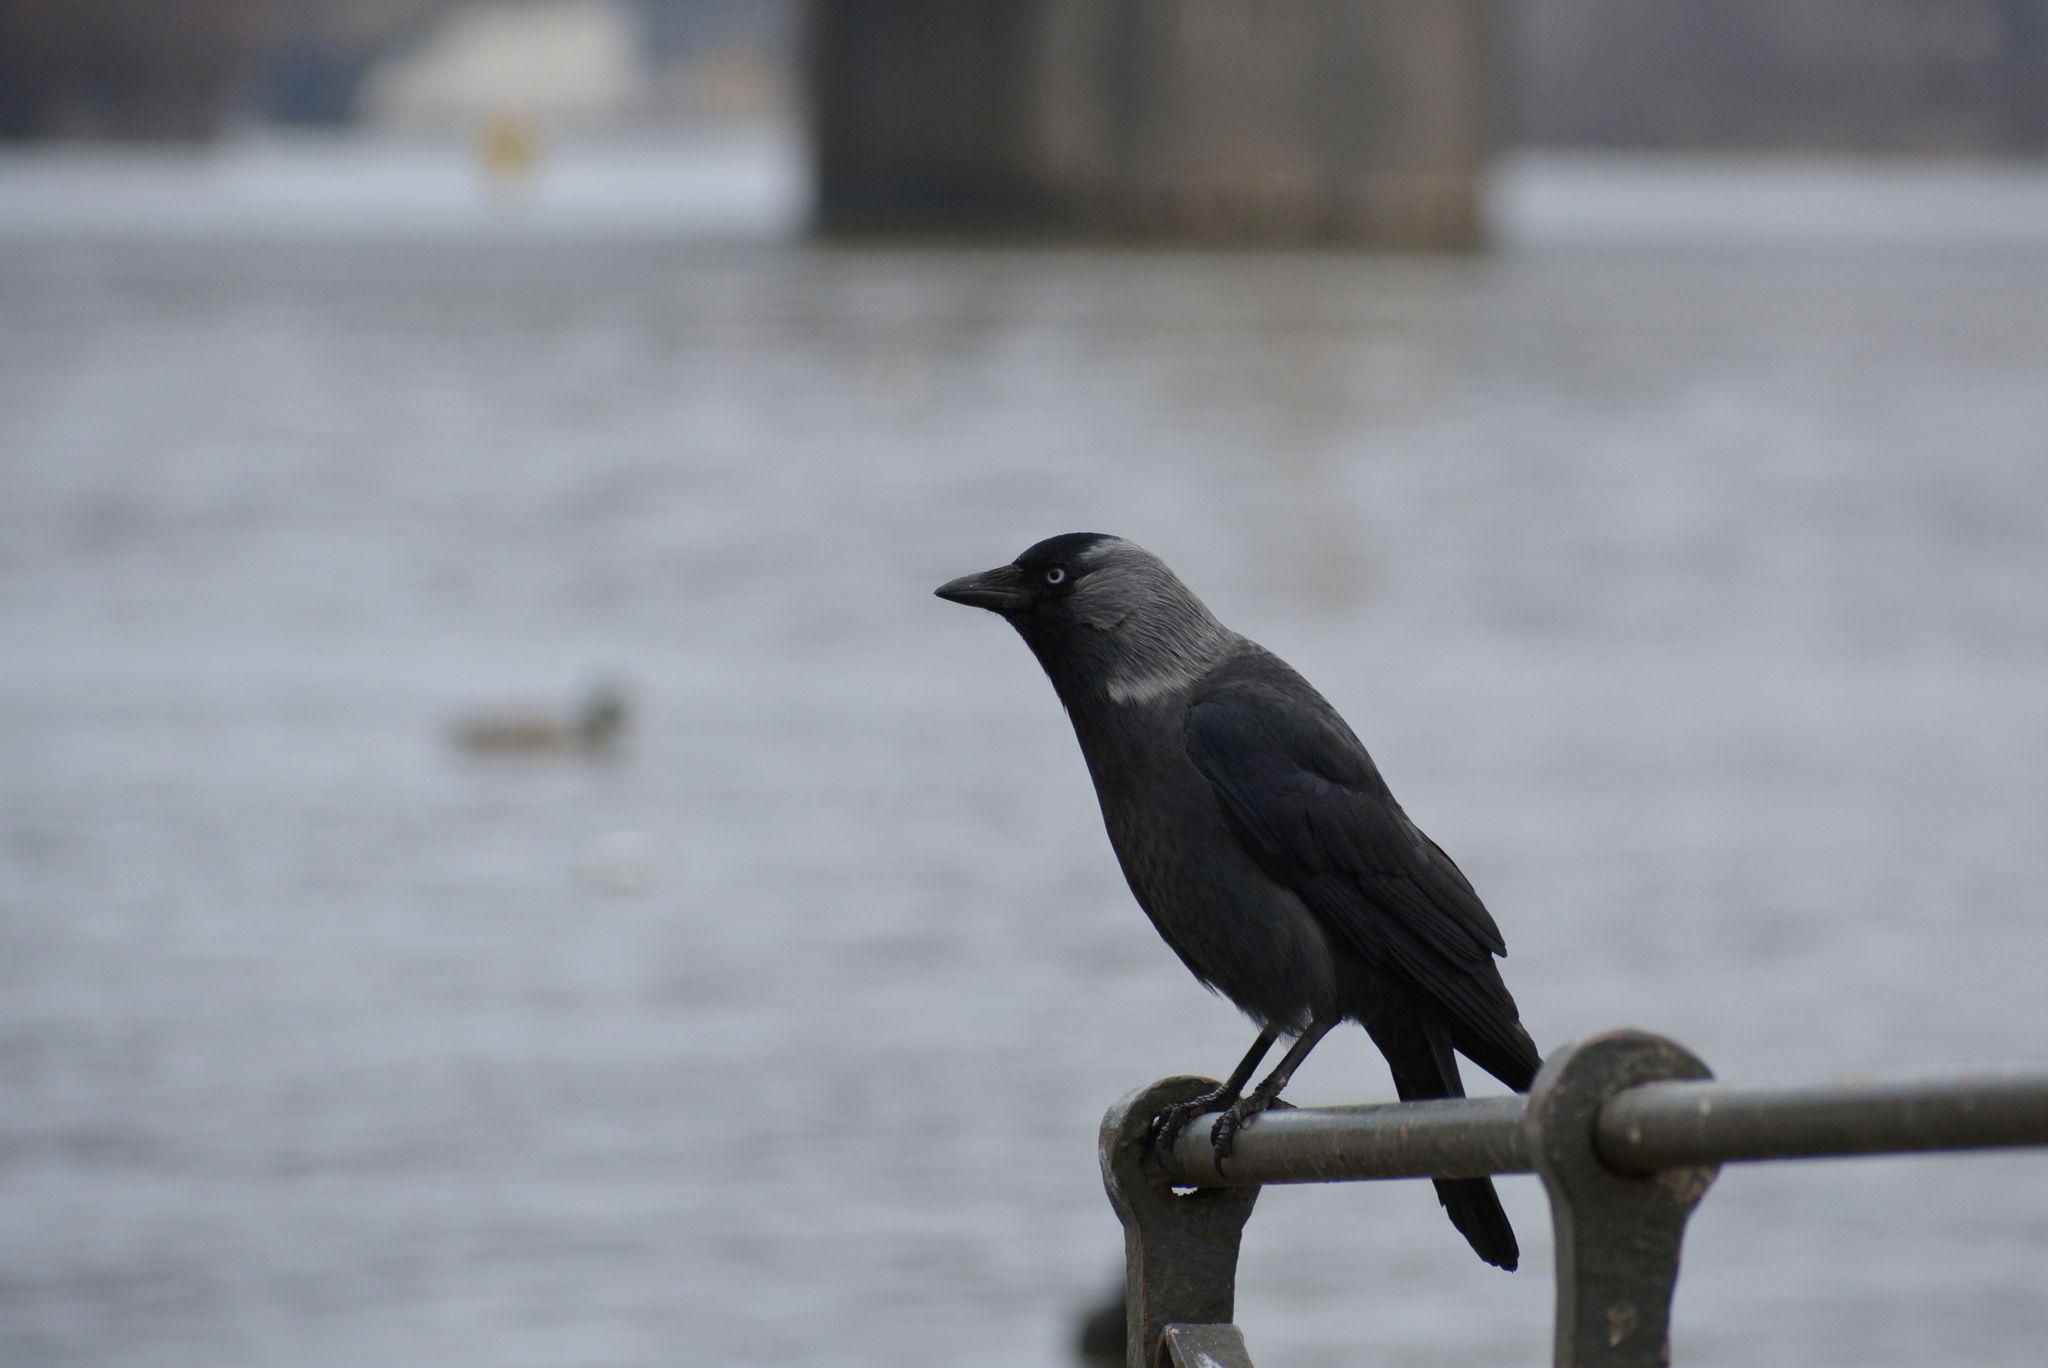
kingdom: Animalia
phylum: Chordata
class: Aves
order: Passeriformes
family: Corvidae
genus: Coloeus
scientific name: Coloeus monedula
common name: Western jackdaw
